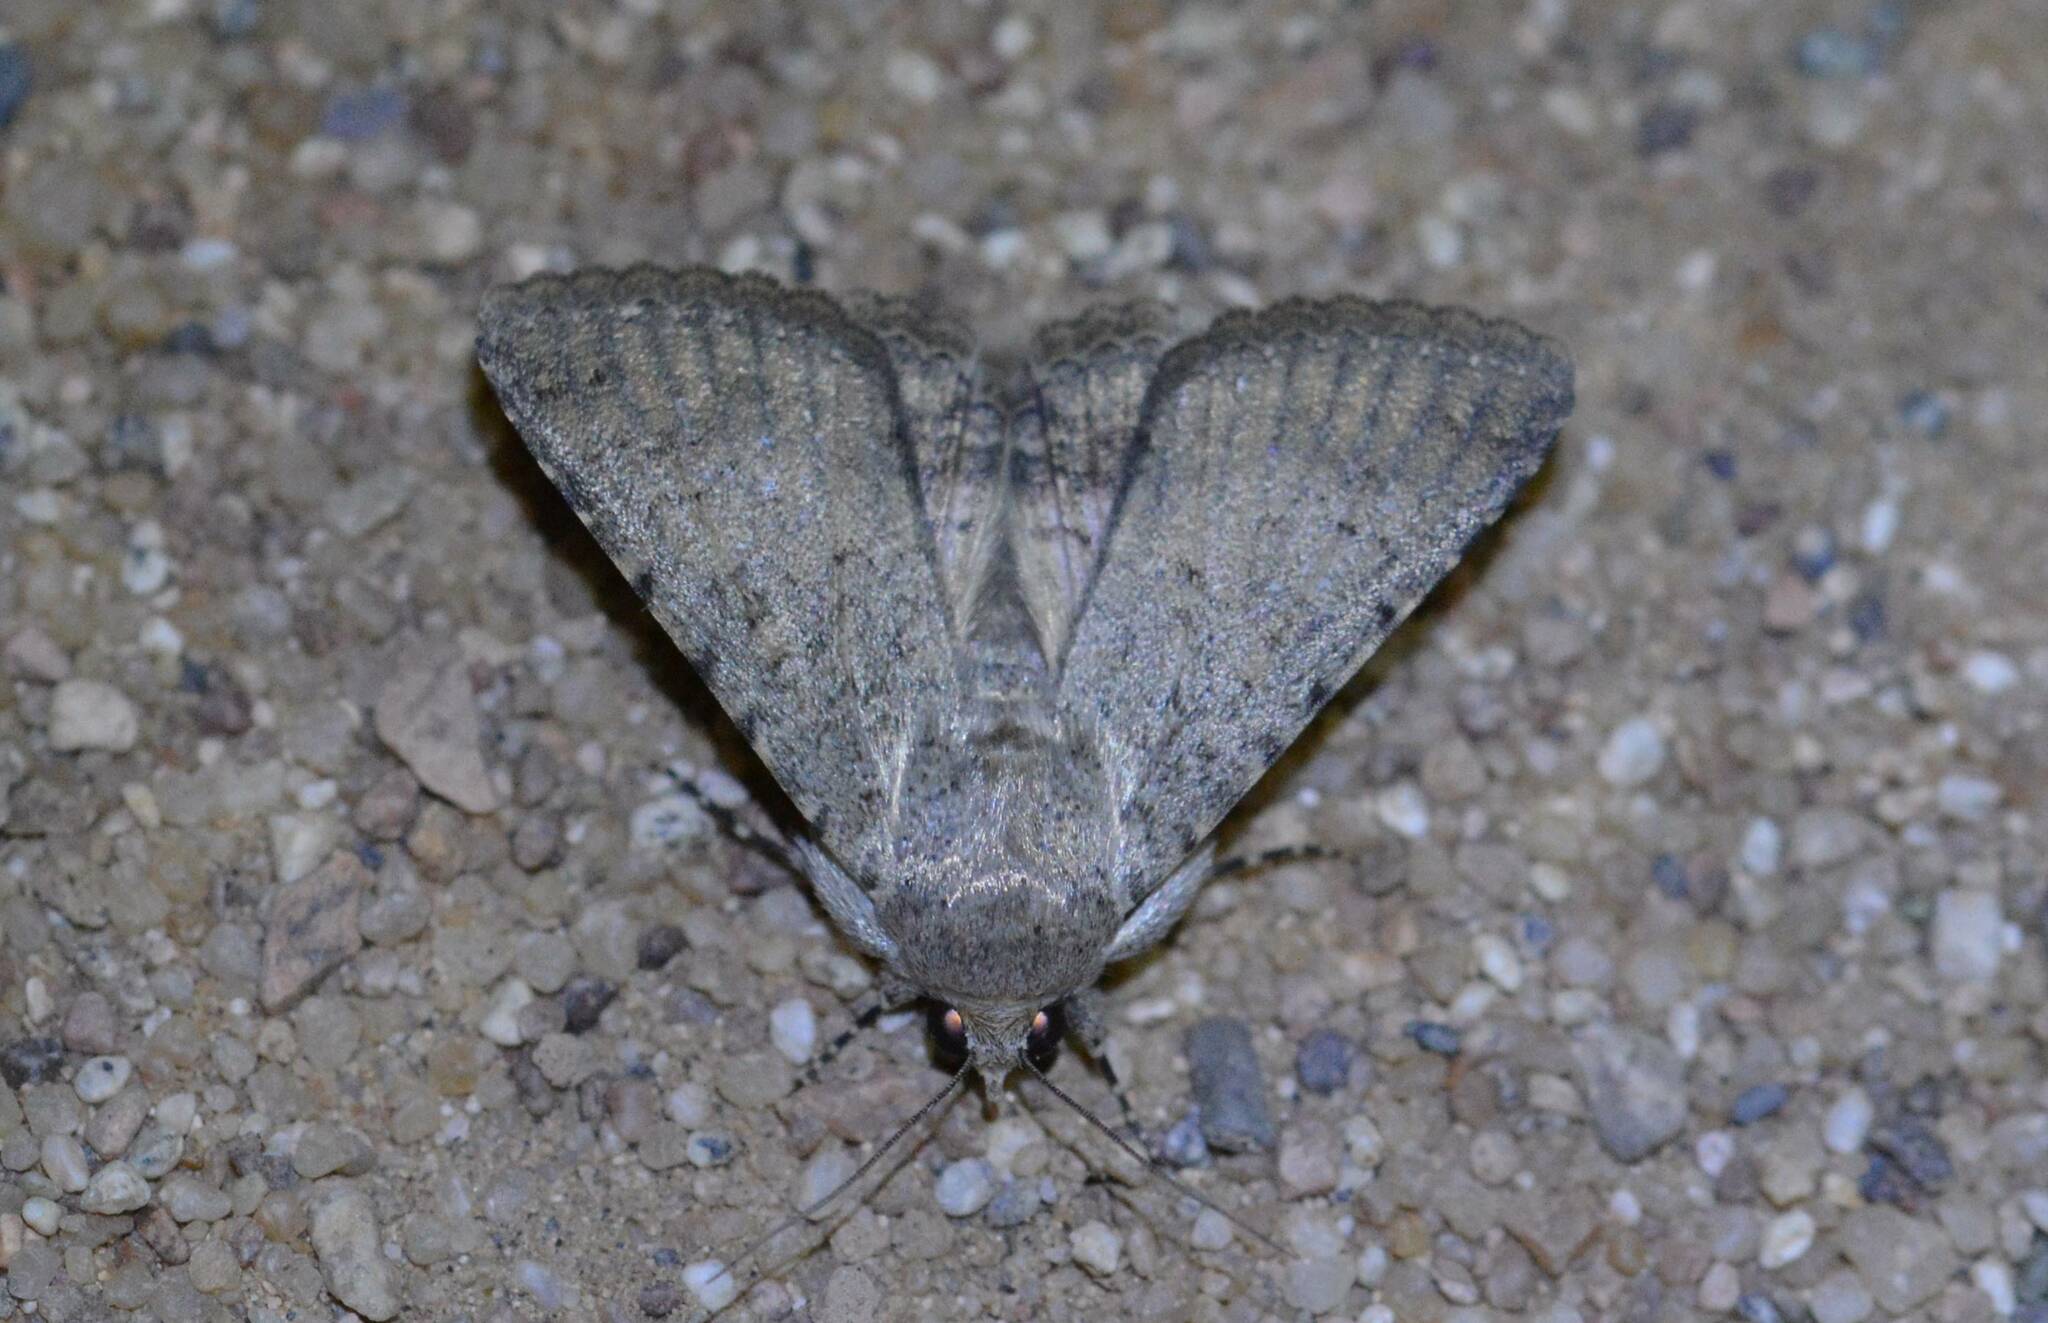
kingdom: Animalia
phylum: Arthropoda
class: Insecta
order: Lepidoptera
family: Erebidae
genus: Pandesma
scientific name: Pandesma robusta
